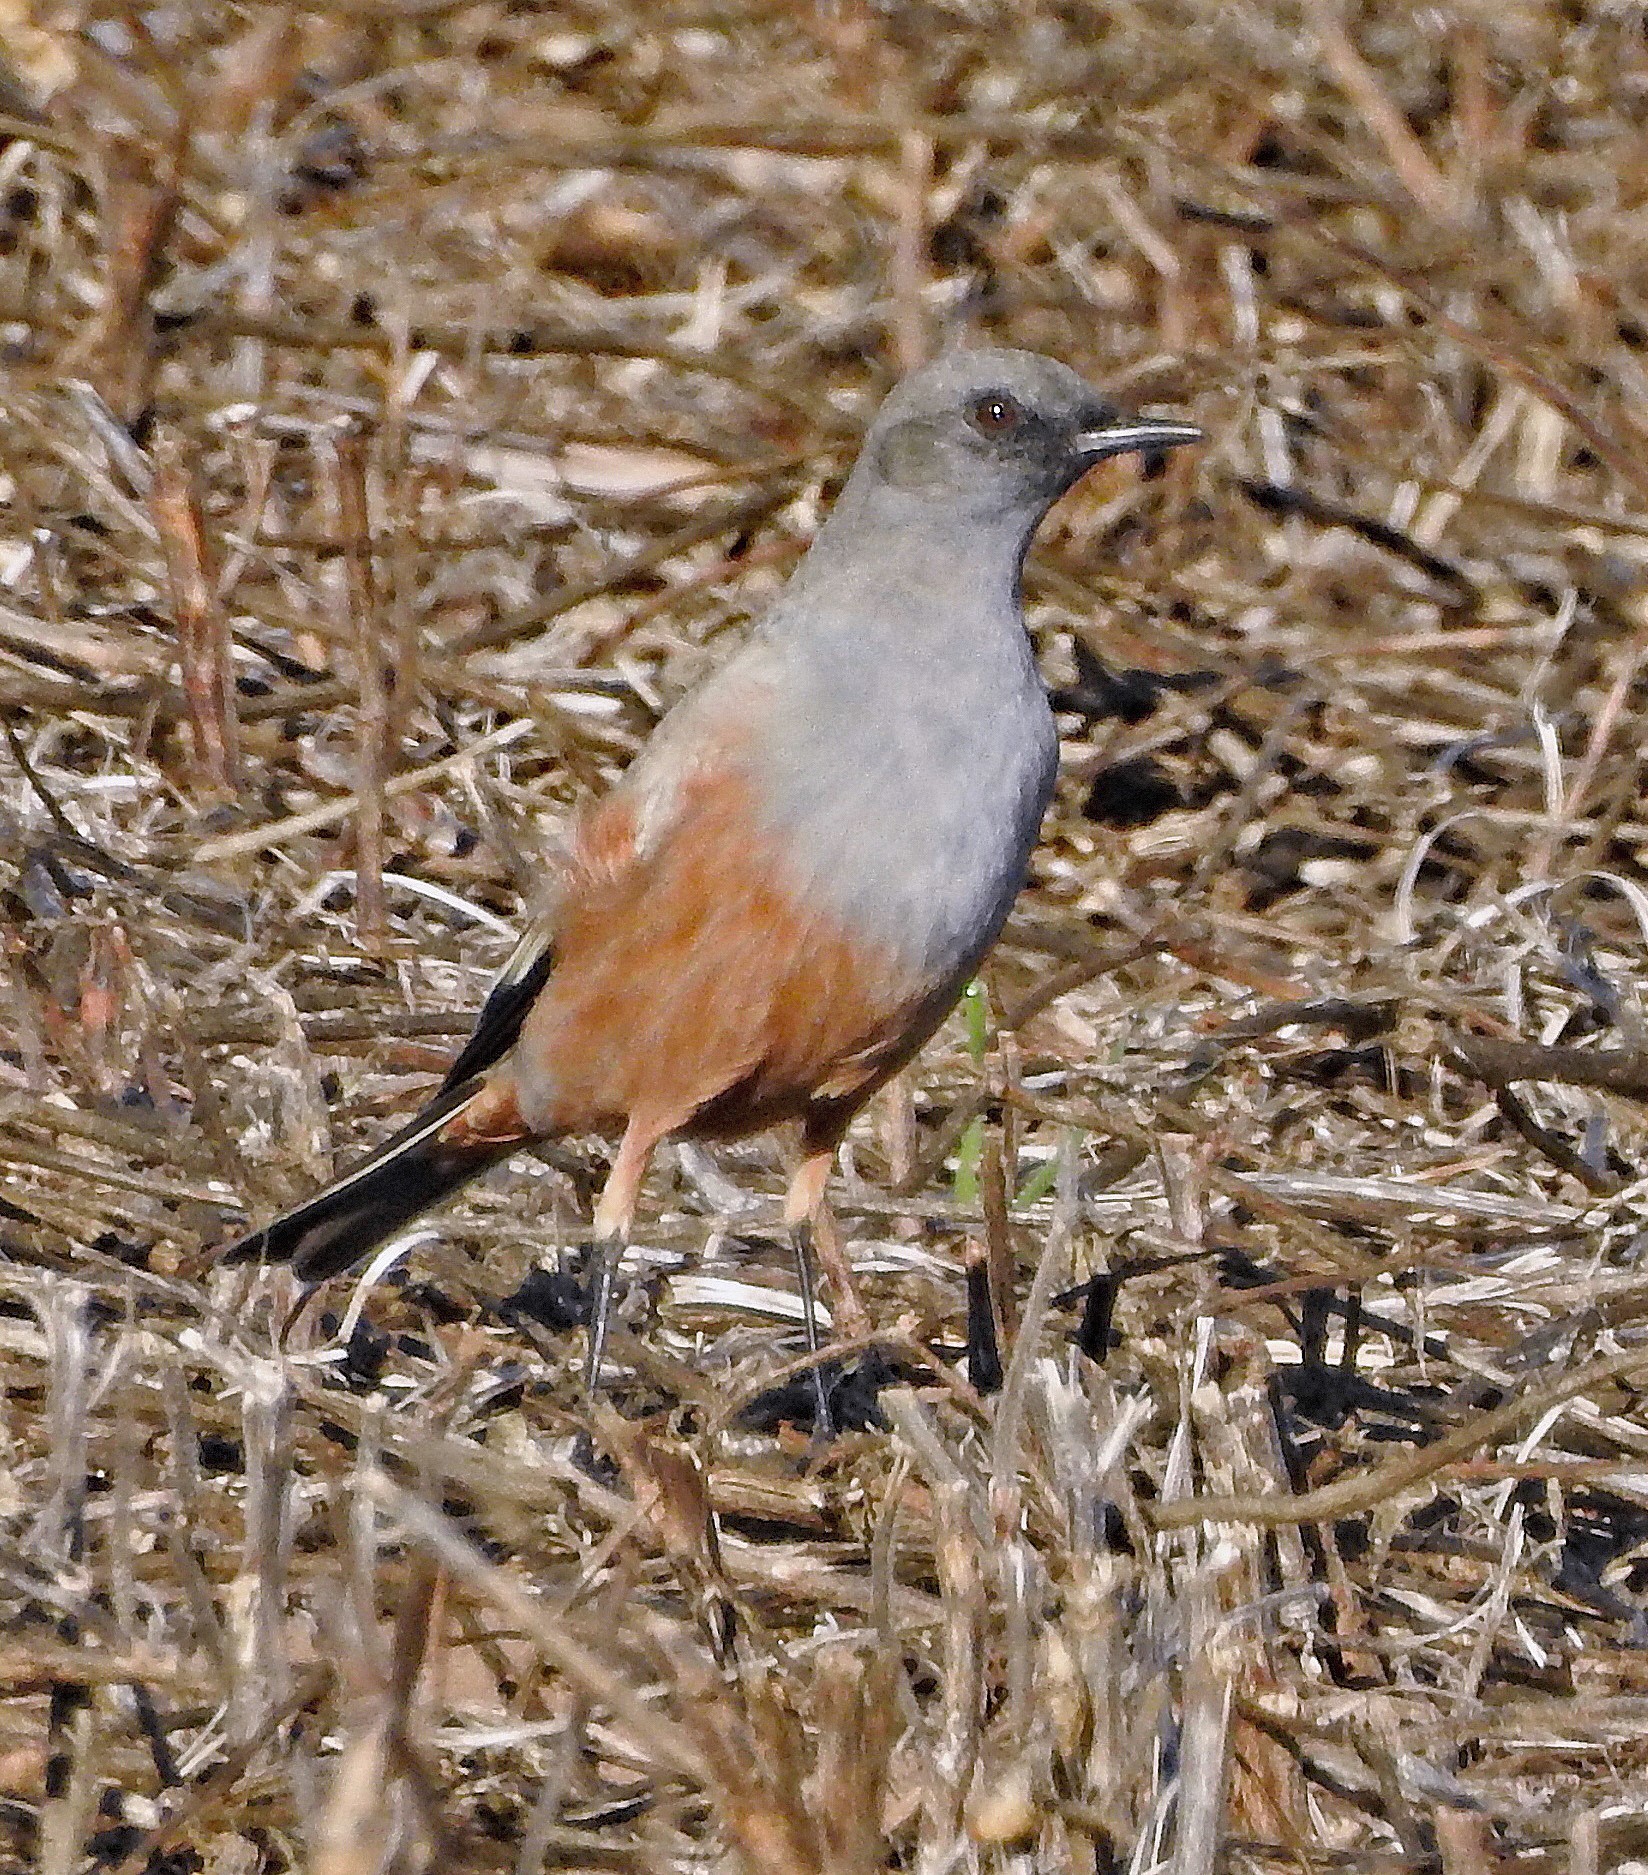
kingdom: Animalia
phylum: Chordata
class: Aves
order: Passeriformes
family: Tyrannidae
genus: Neoxolmis
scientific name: Neoxolmis rufiventris
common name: Chocolate-vented tyrant
